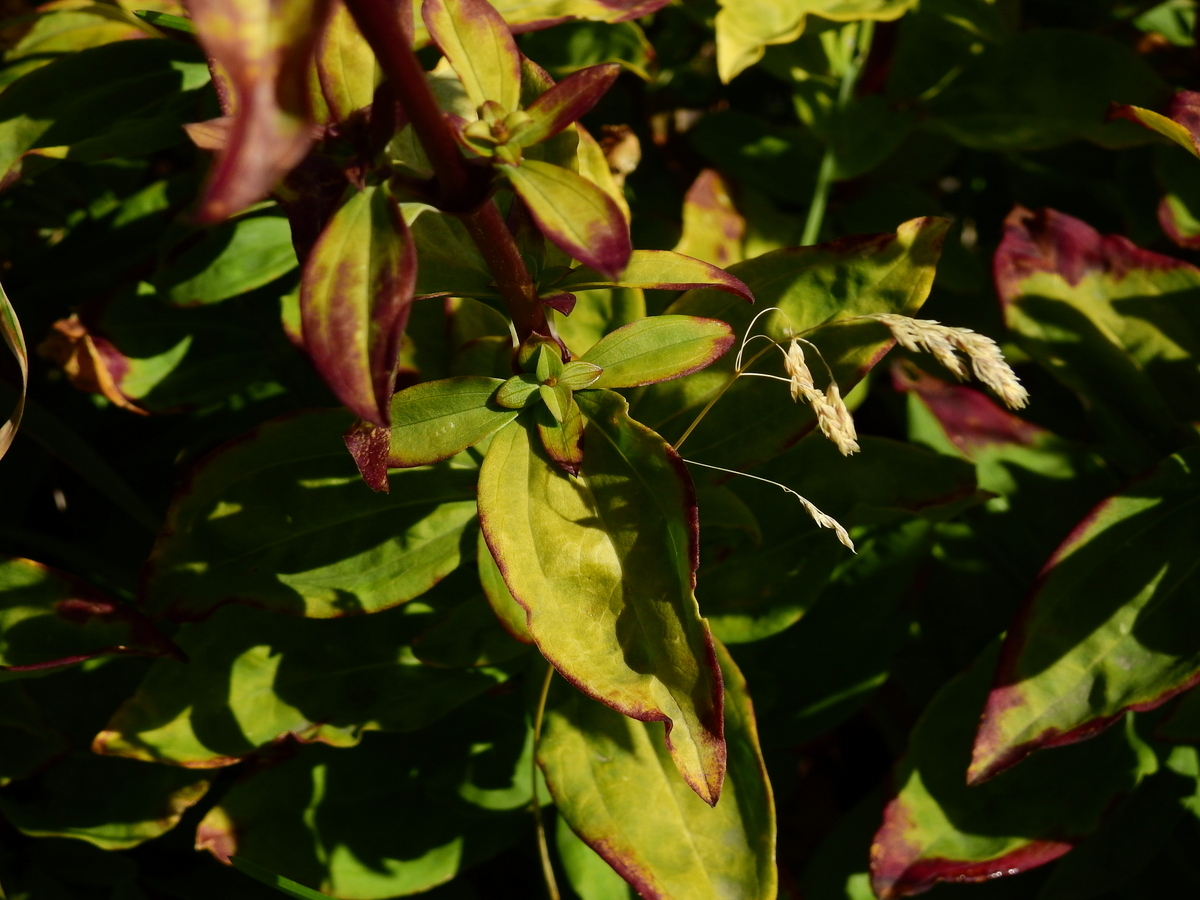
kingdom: Plantae
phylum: Tracheophyta
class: Magnoliopsida
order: Caryophyllales
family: Caryophyllaceae
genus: Saponaria
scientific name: Saponaria officinalis
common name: Soapwort
